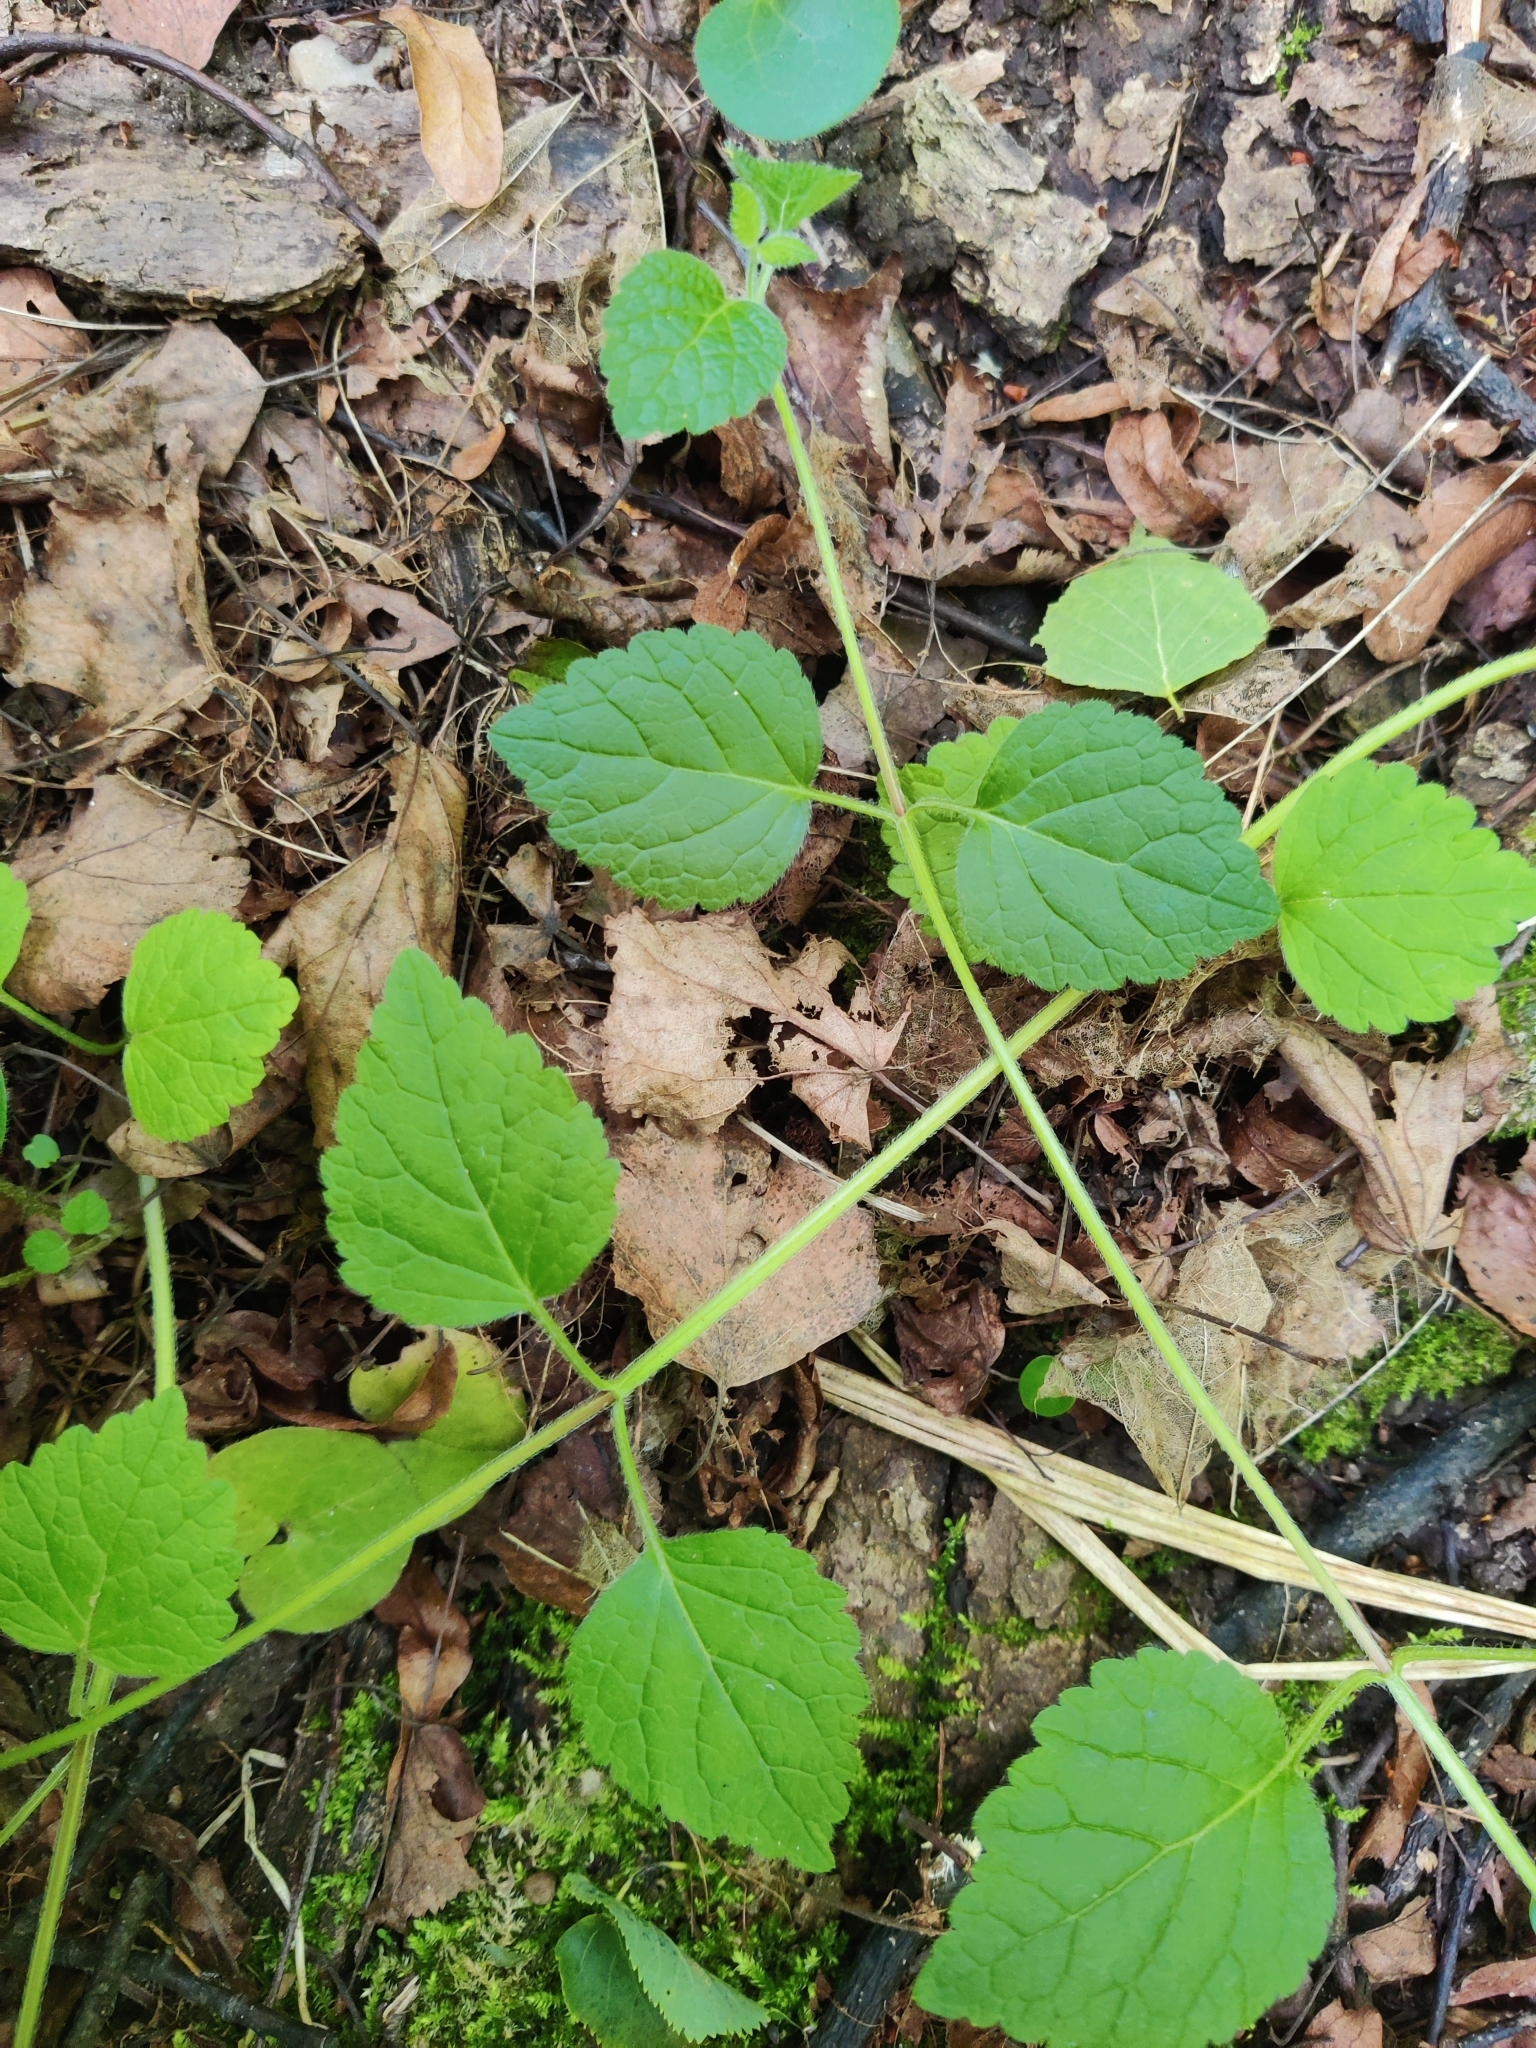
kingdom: Plantae
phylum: Tracheophyta
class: Magnoliopsida
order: Lamiales
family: Lamiaceae
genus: Lamium
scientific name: Lamium galeobdolon
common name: Yellow archangel
